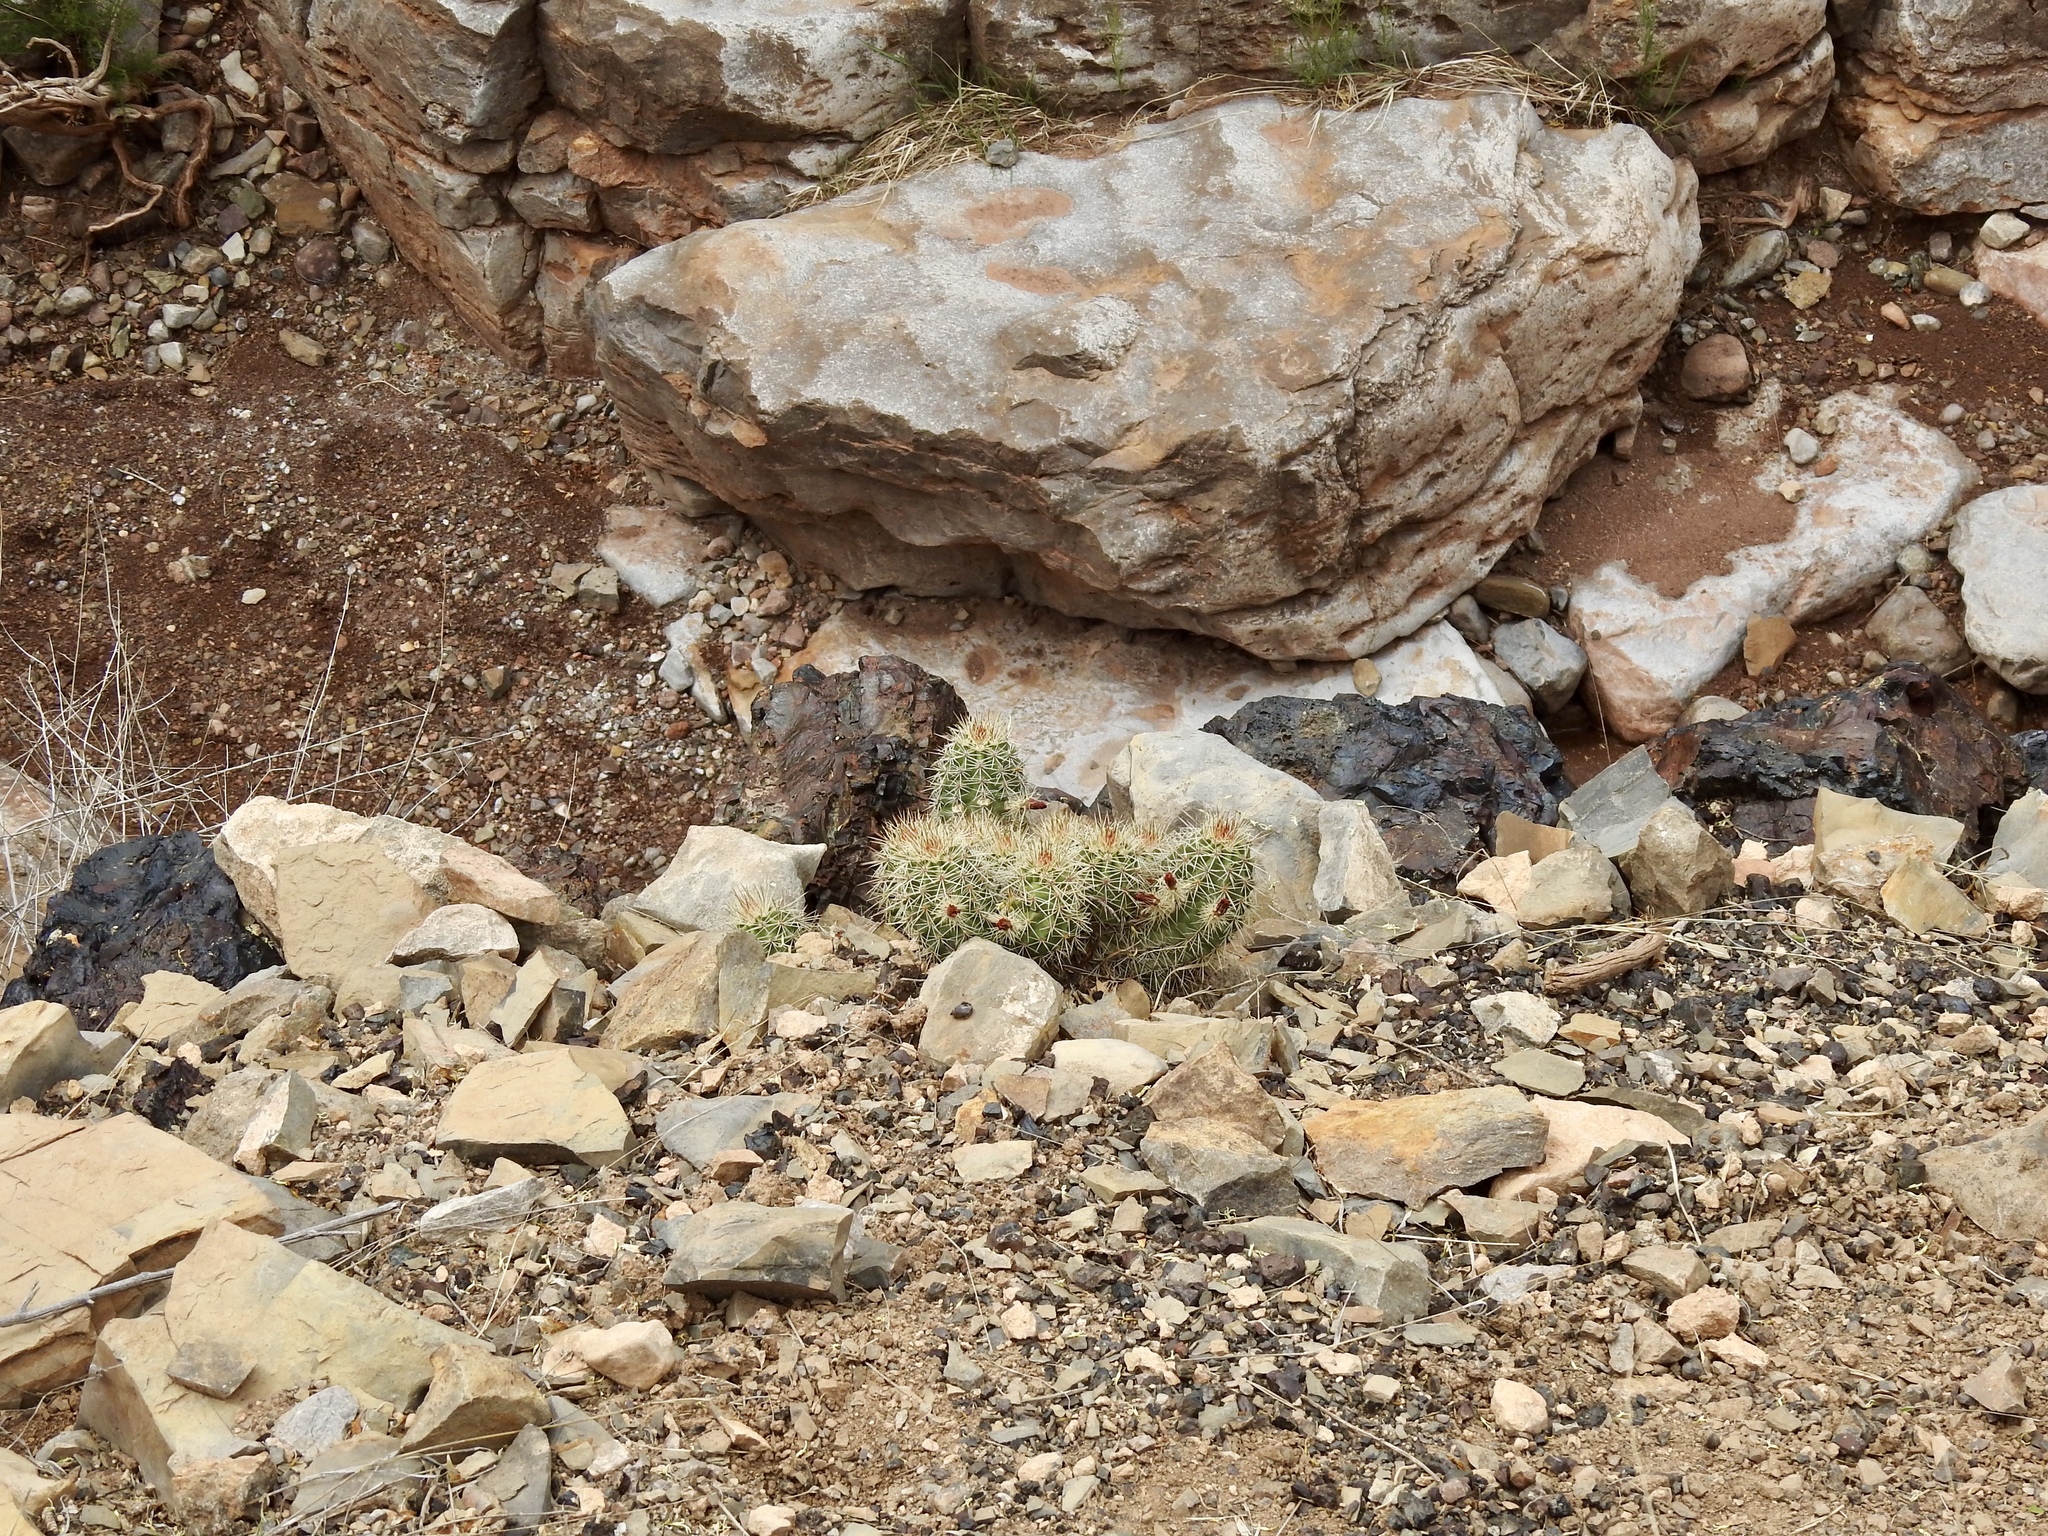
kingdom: Plantae
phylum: Tracheophyta
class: Magnoliopsida
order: Caryophyllales
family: Cactaceae
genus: Echinocereus
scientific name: Echinocereus coccineus
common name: Scarlet hedgehog cactus
